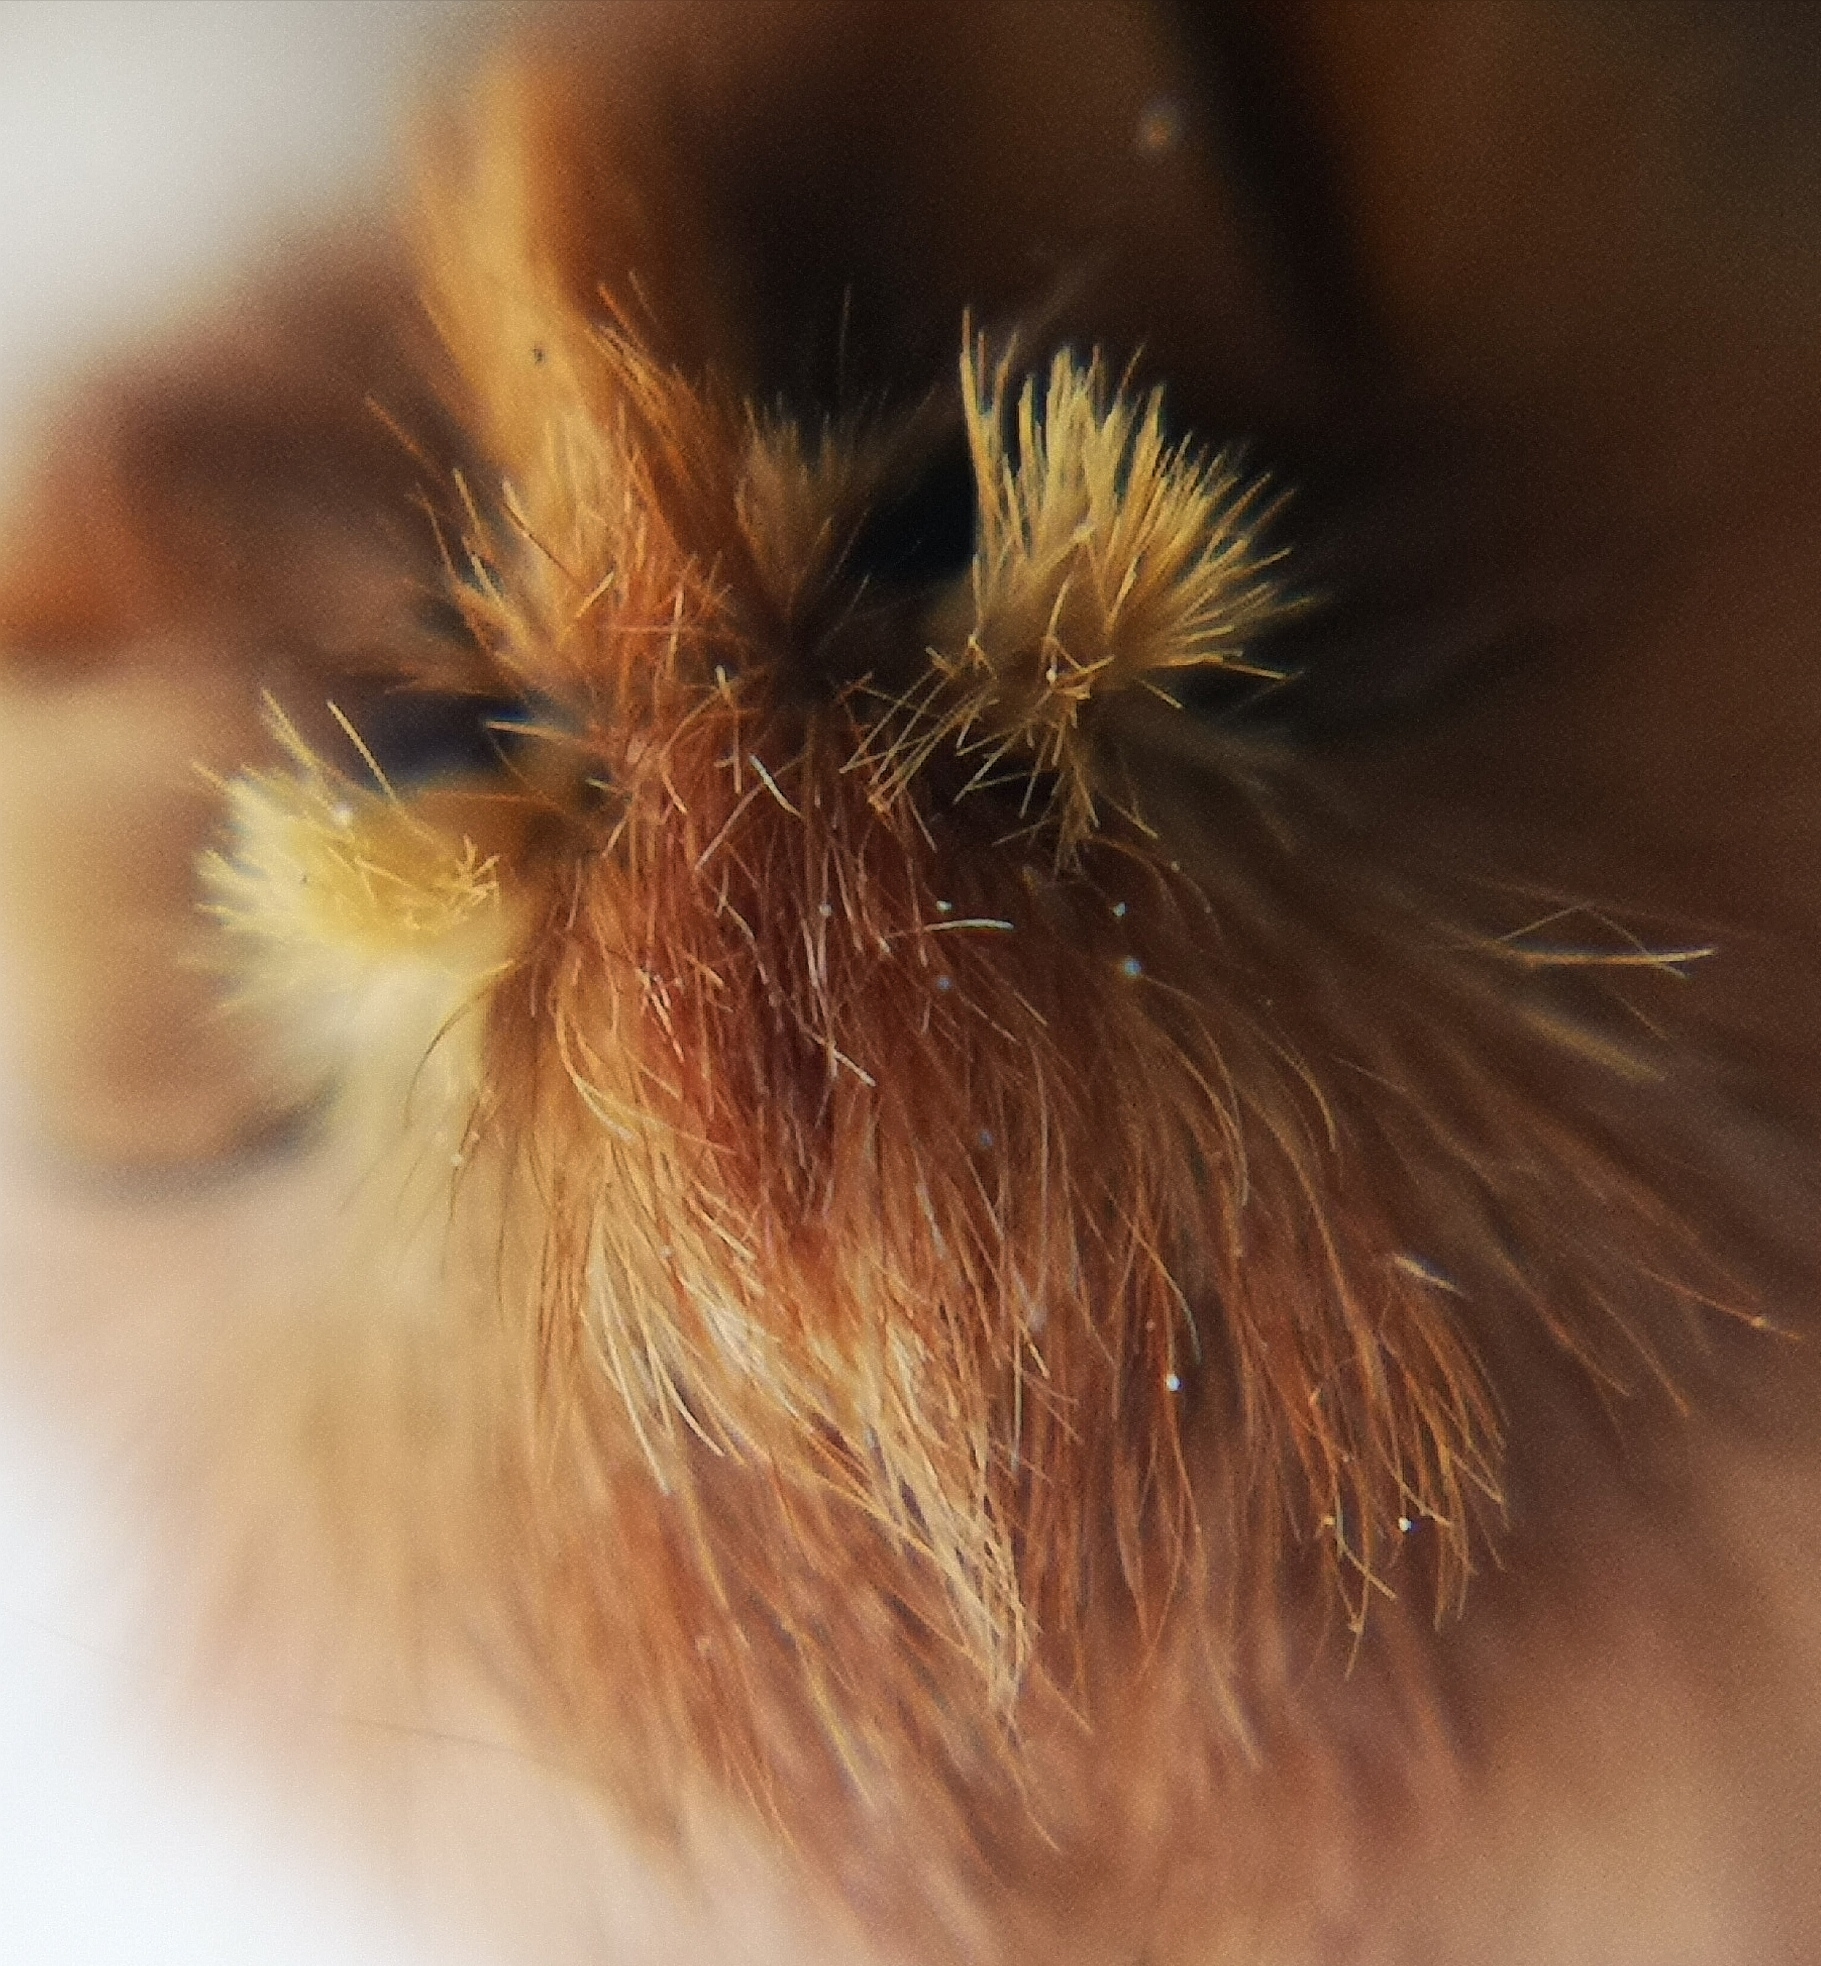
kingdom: Animalia
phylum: Arthropoda
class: Insecta
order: Lepidoptera
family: Notodontidae
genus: Ptilophora
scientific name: Ptilophora plumigera
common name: Plumed prominent
